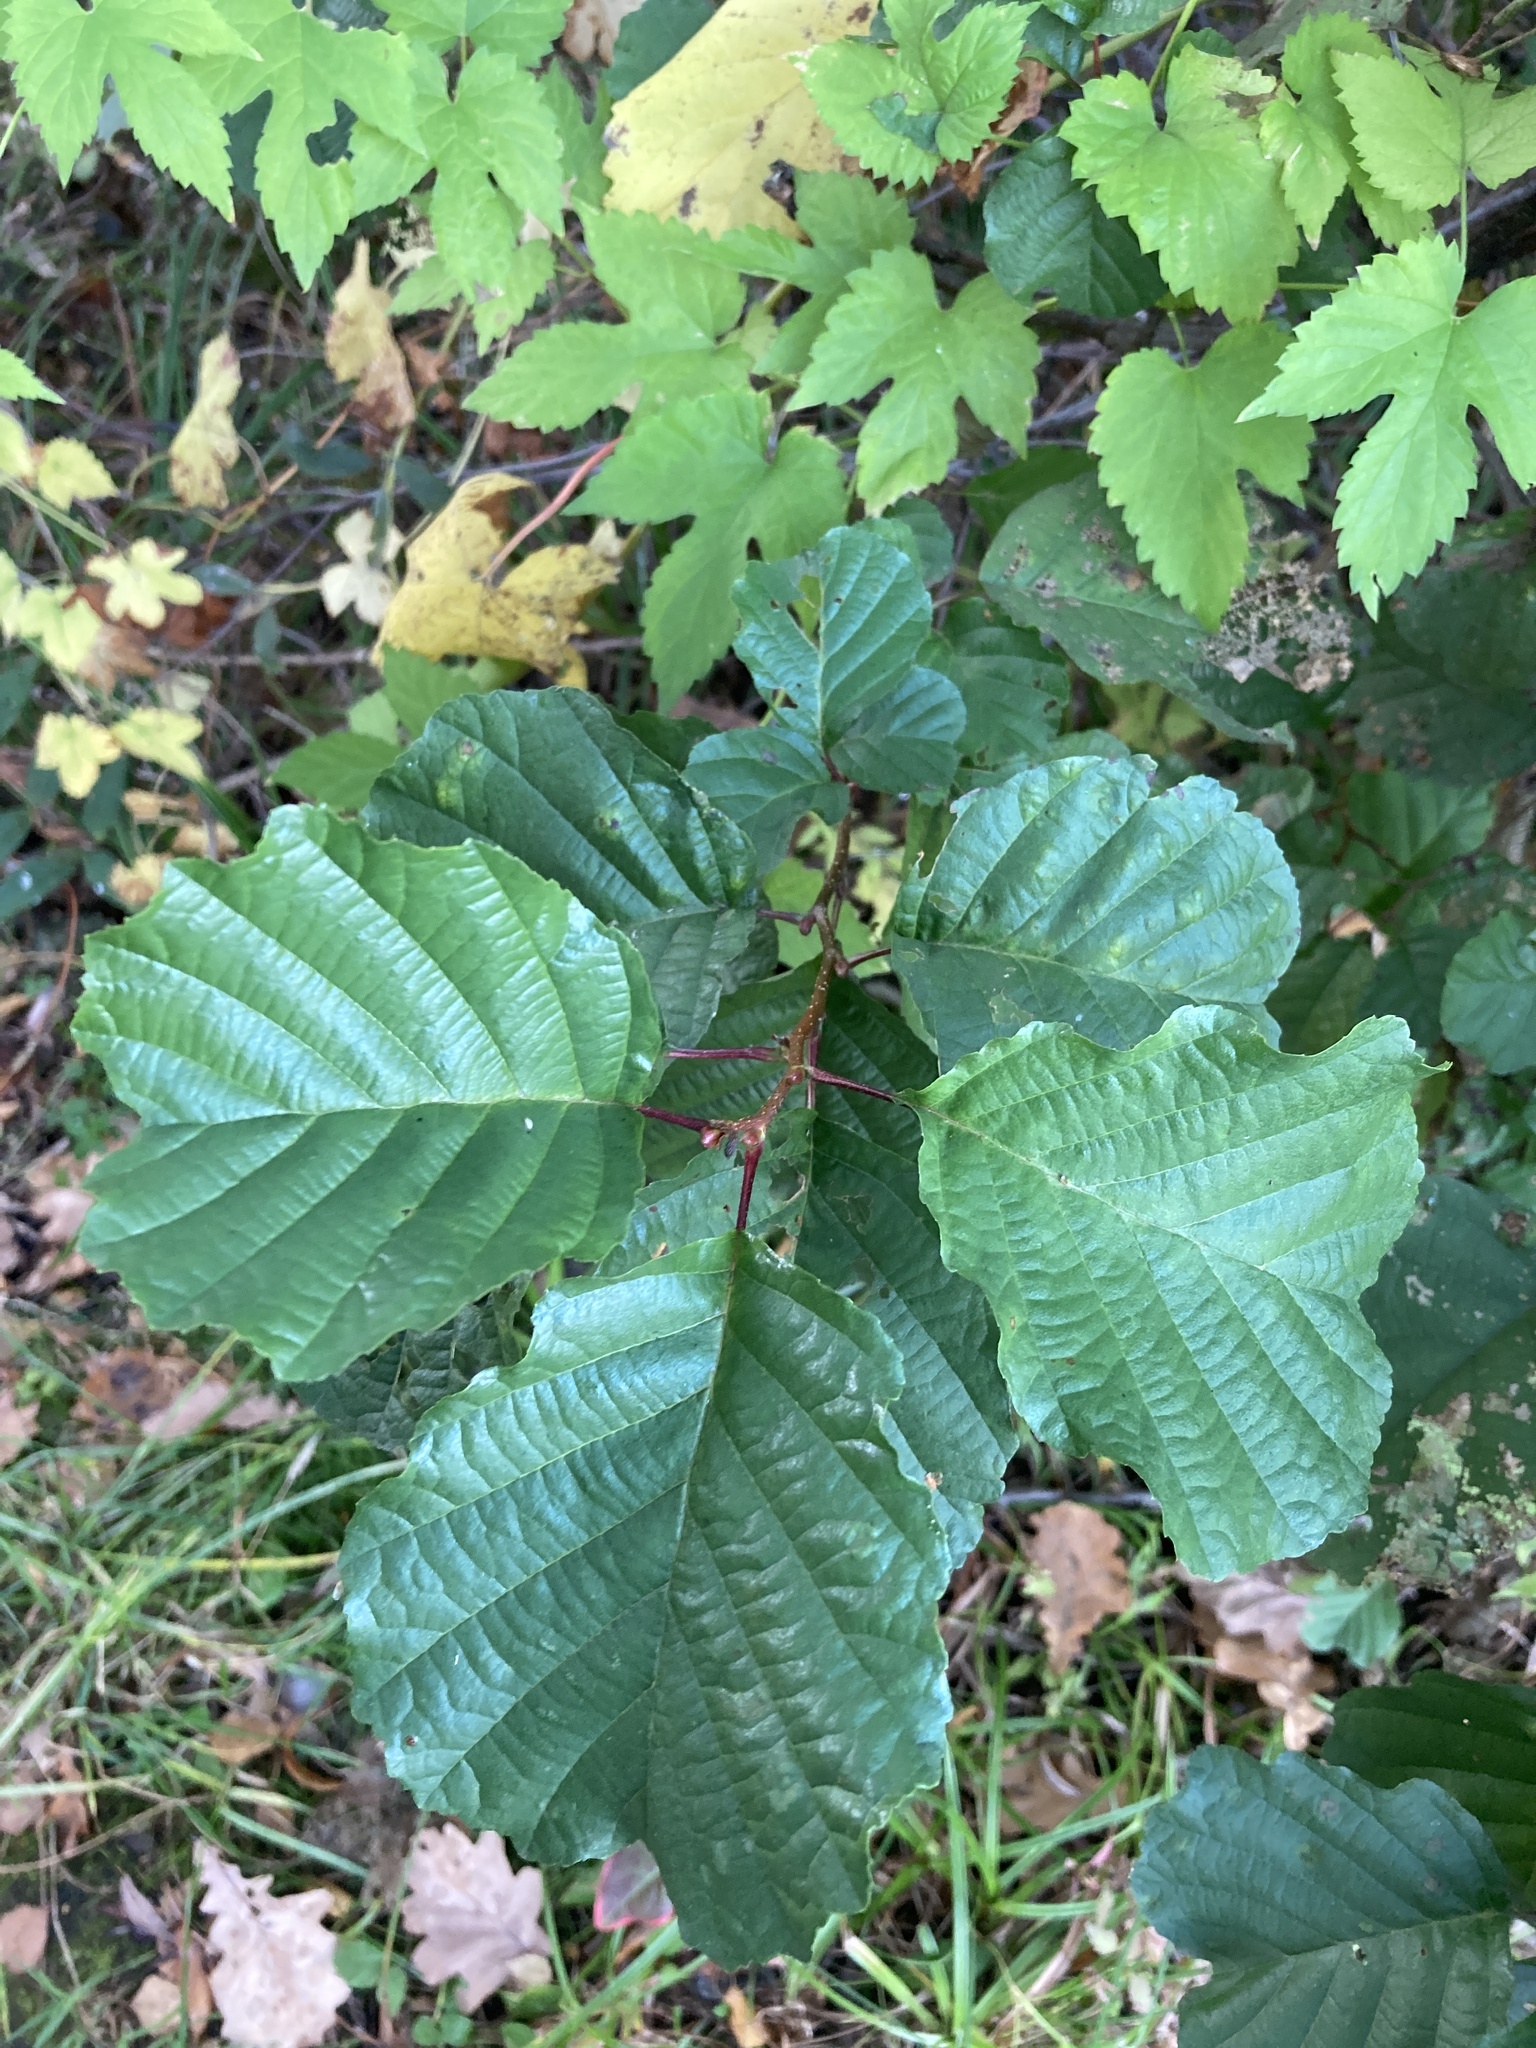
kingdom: Plantae
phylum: Tracheophyta
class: Magnoliopsida
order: Fagales
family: Betulaceae
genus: Alnus
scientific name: Alnus glutinosa
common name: Black alder
